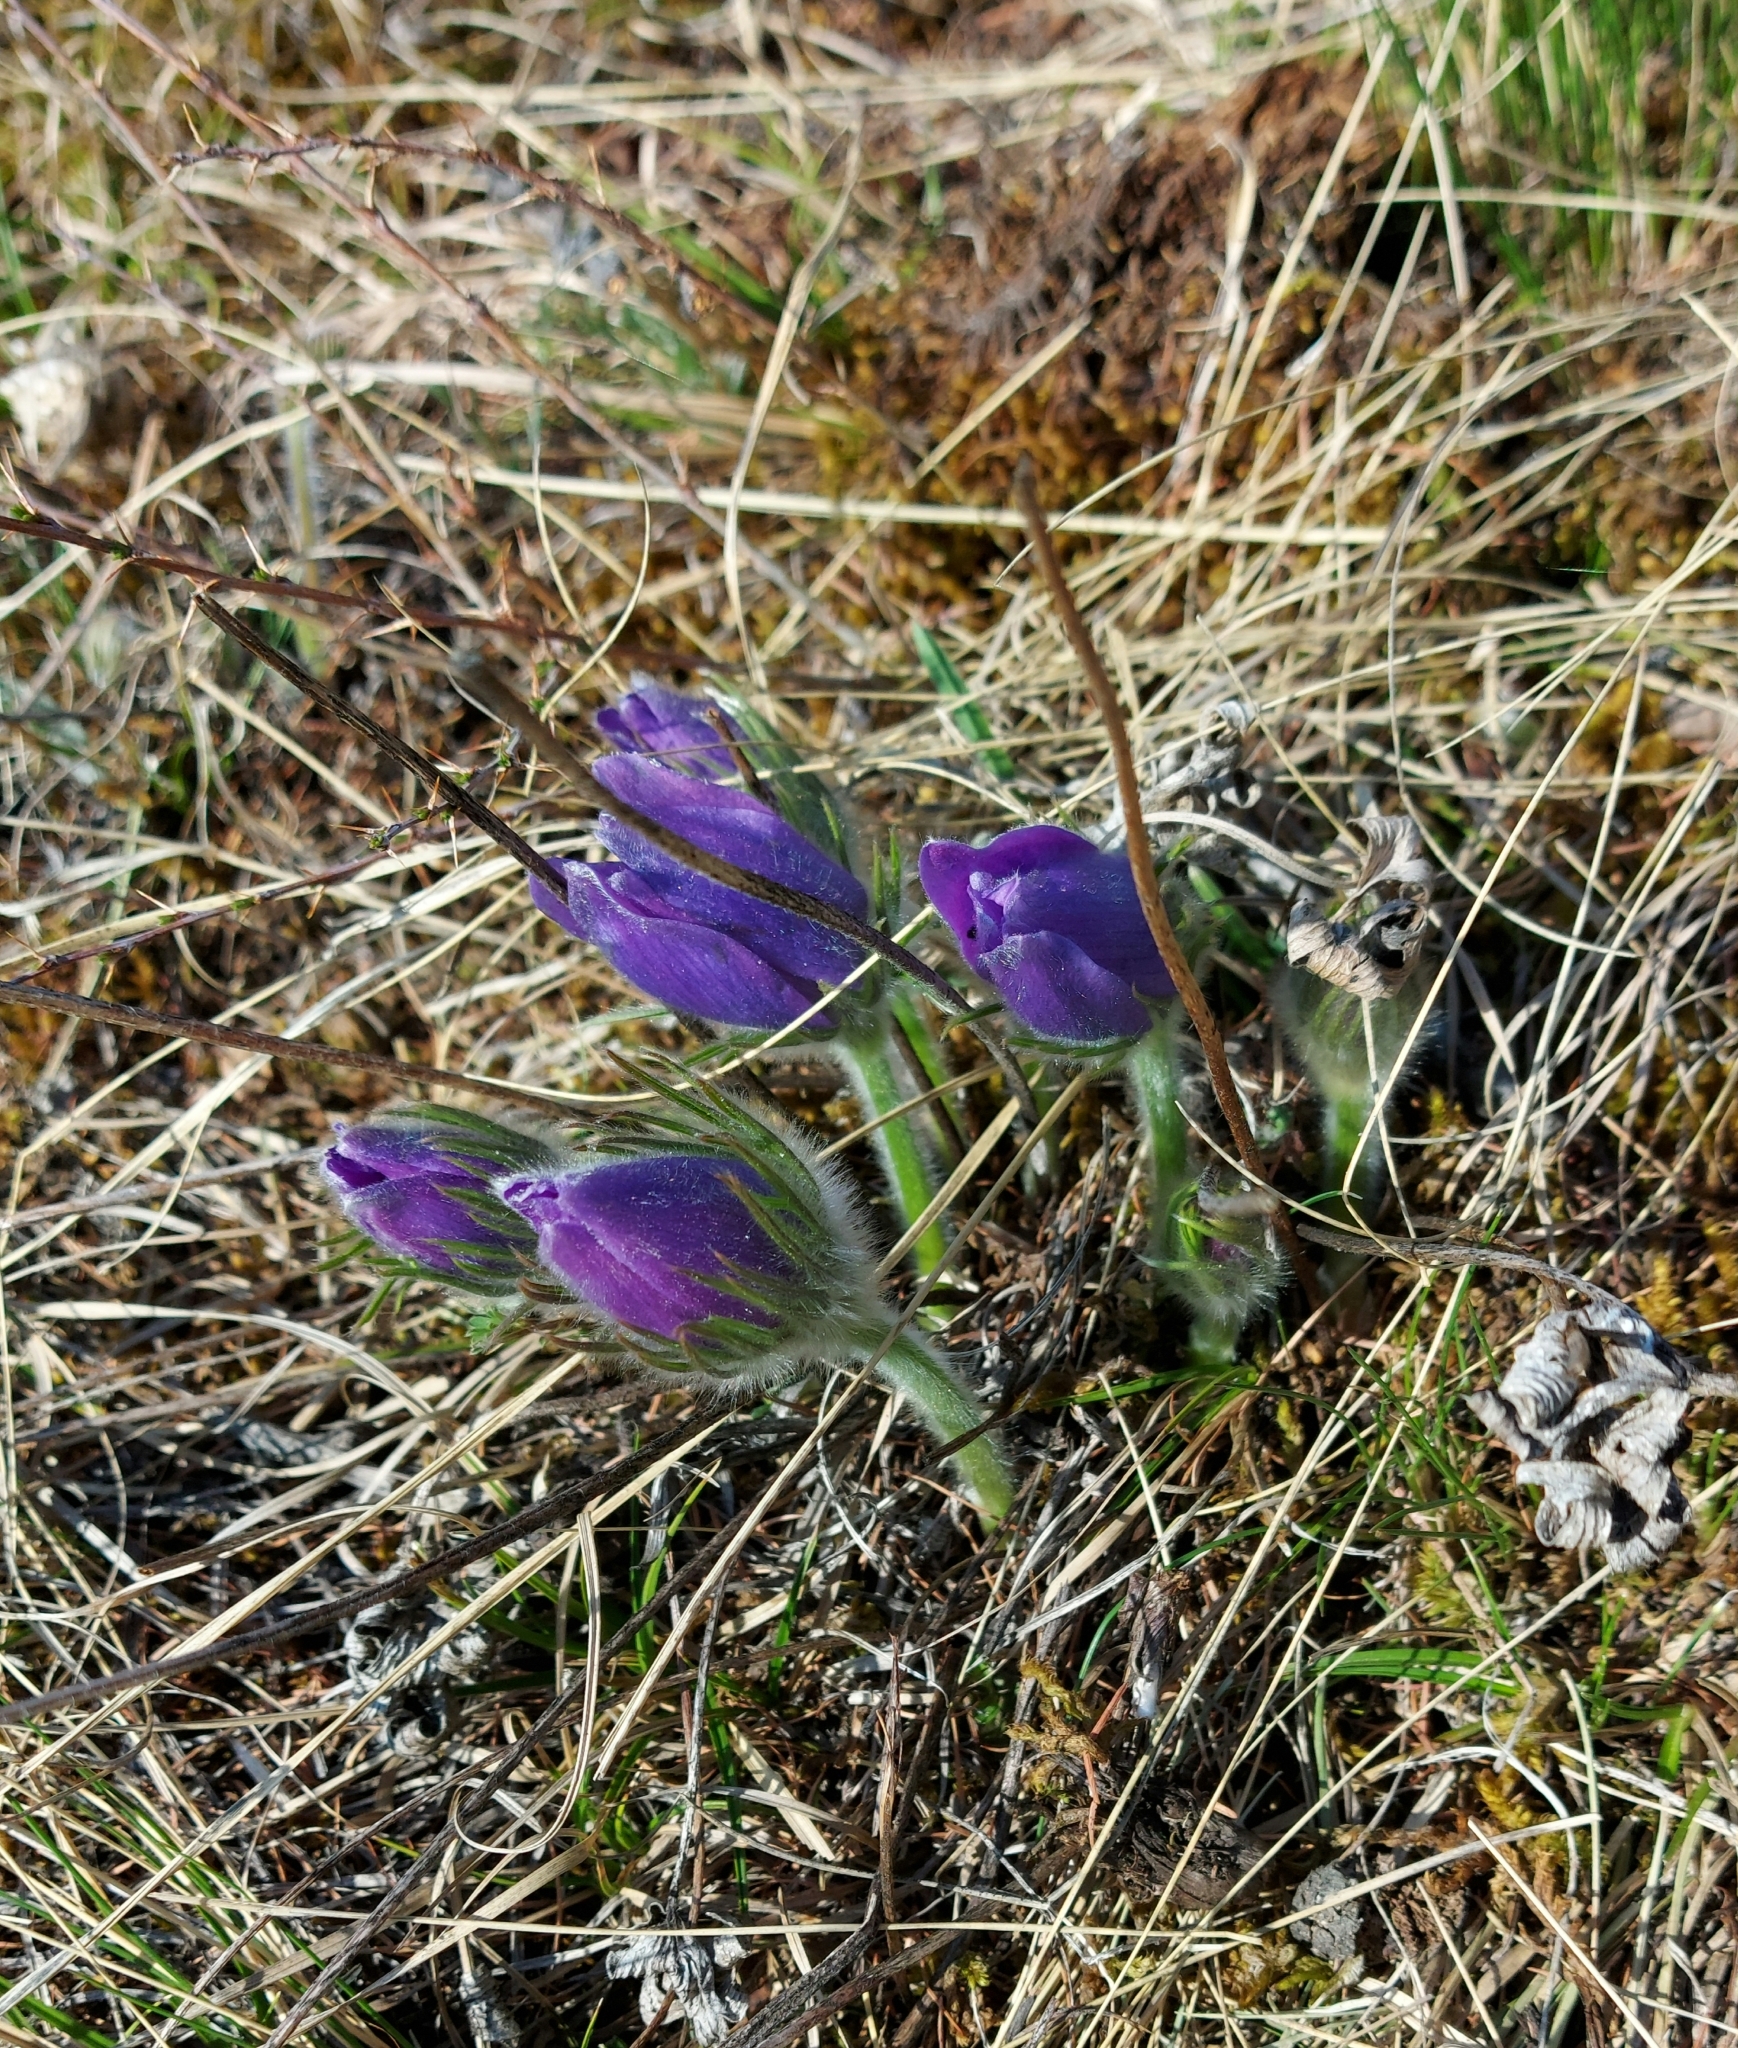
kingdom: Plantae
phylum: Tracheophyta
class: Magnoliopsida
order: Ranunculales
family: Ranunculaceae
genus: Pulsatilla
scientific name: Pulsatilla patens
